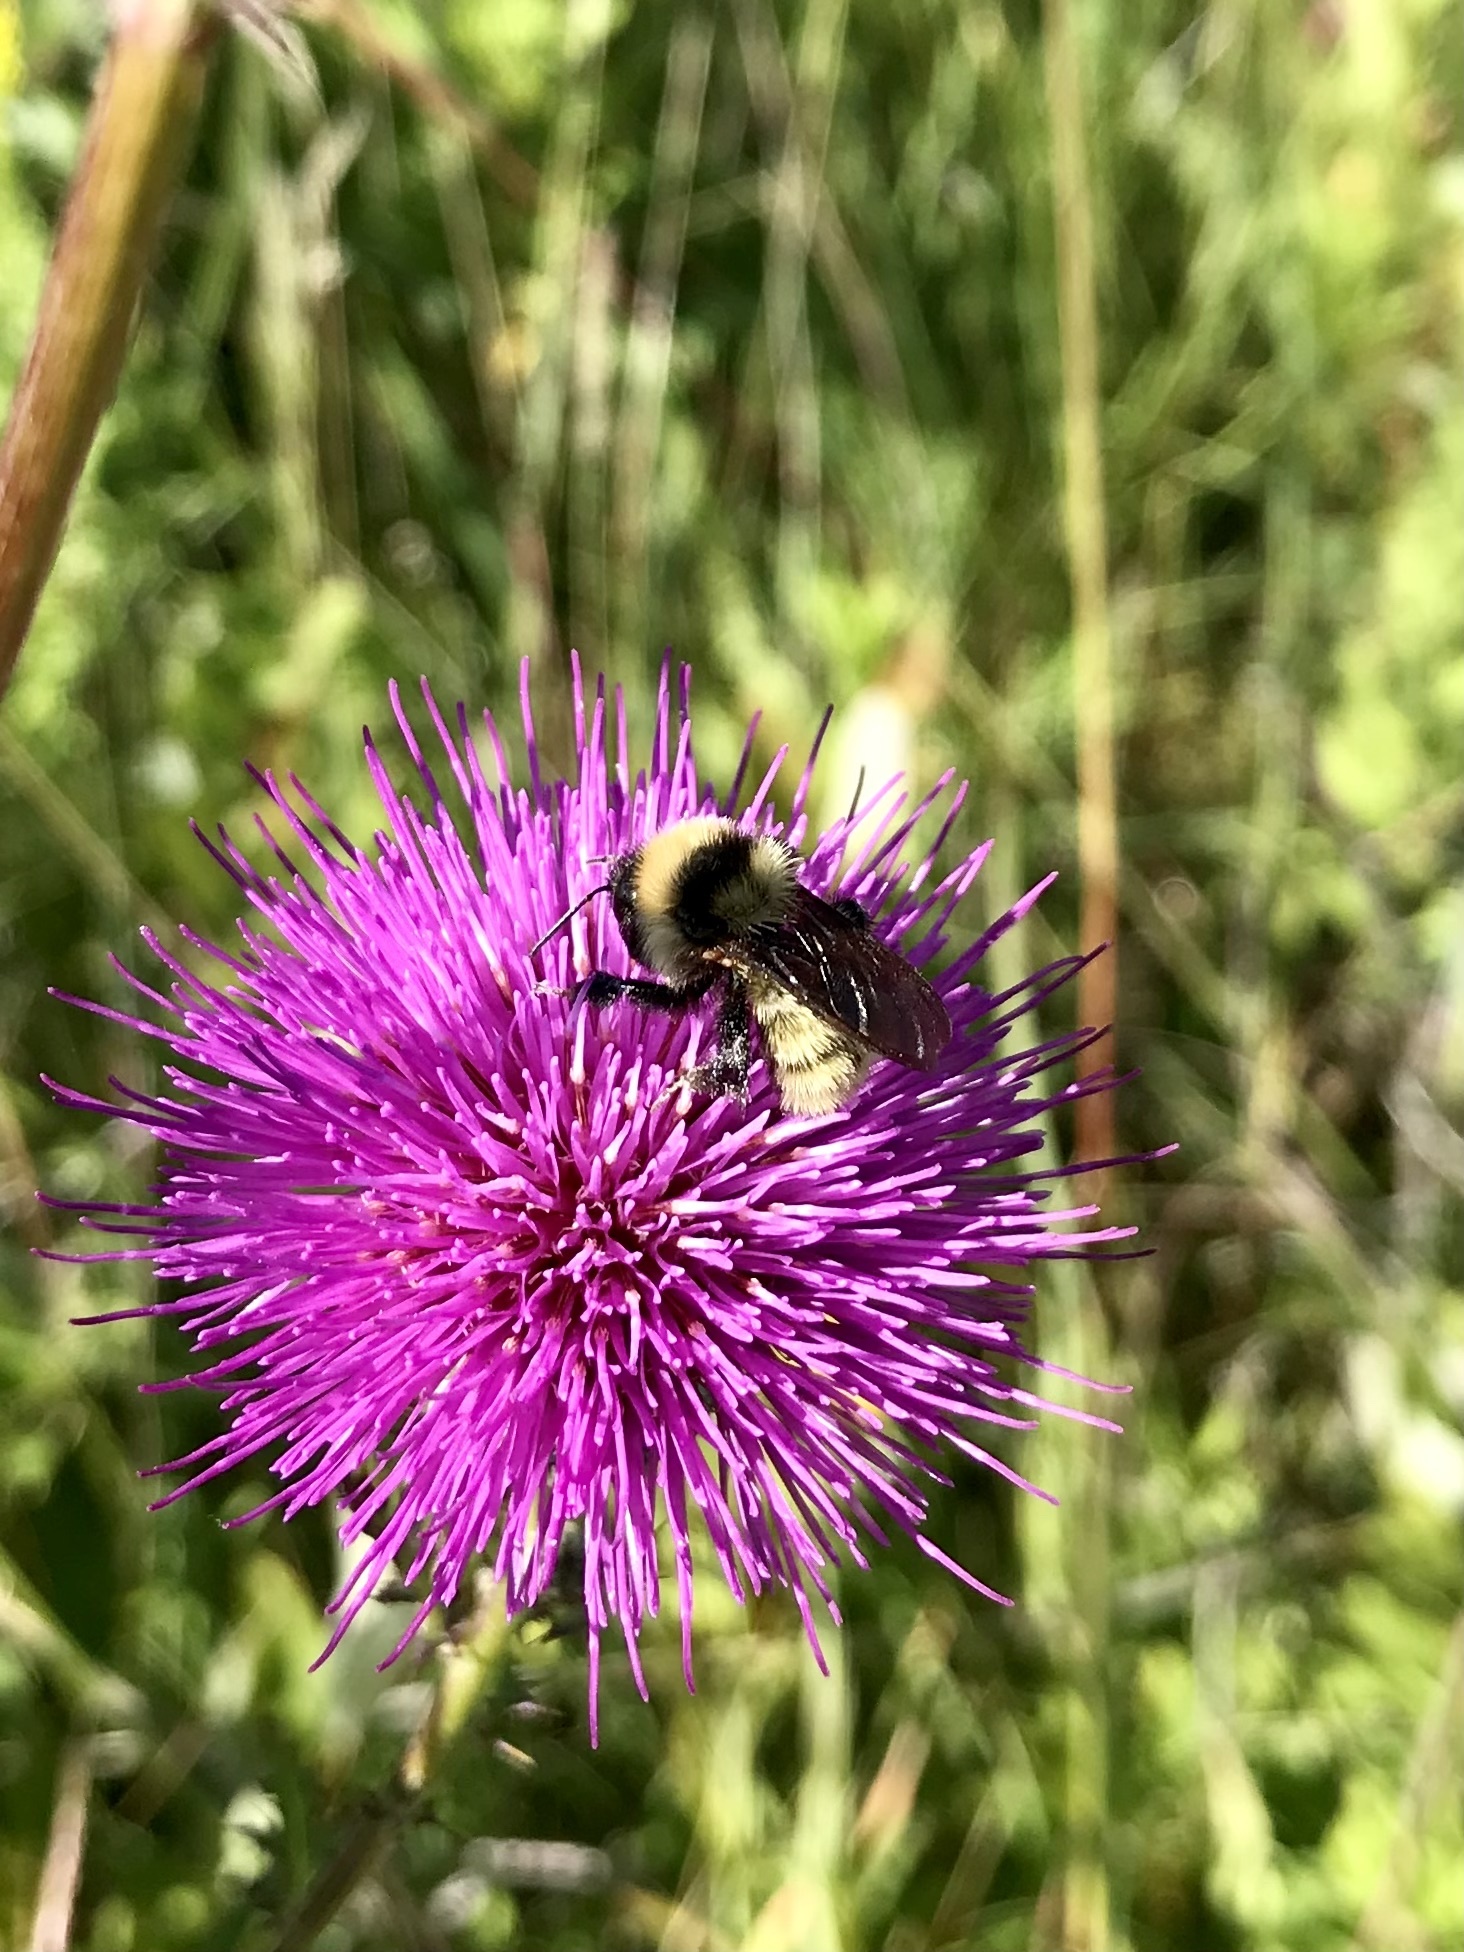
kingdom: Animalia
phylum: Arthropoda
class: Insecta
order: Hymenoptera
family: Apidae
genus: Bombus
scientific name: Bombus fervidus
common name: Yellow bumble bee
